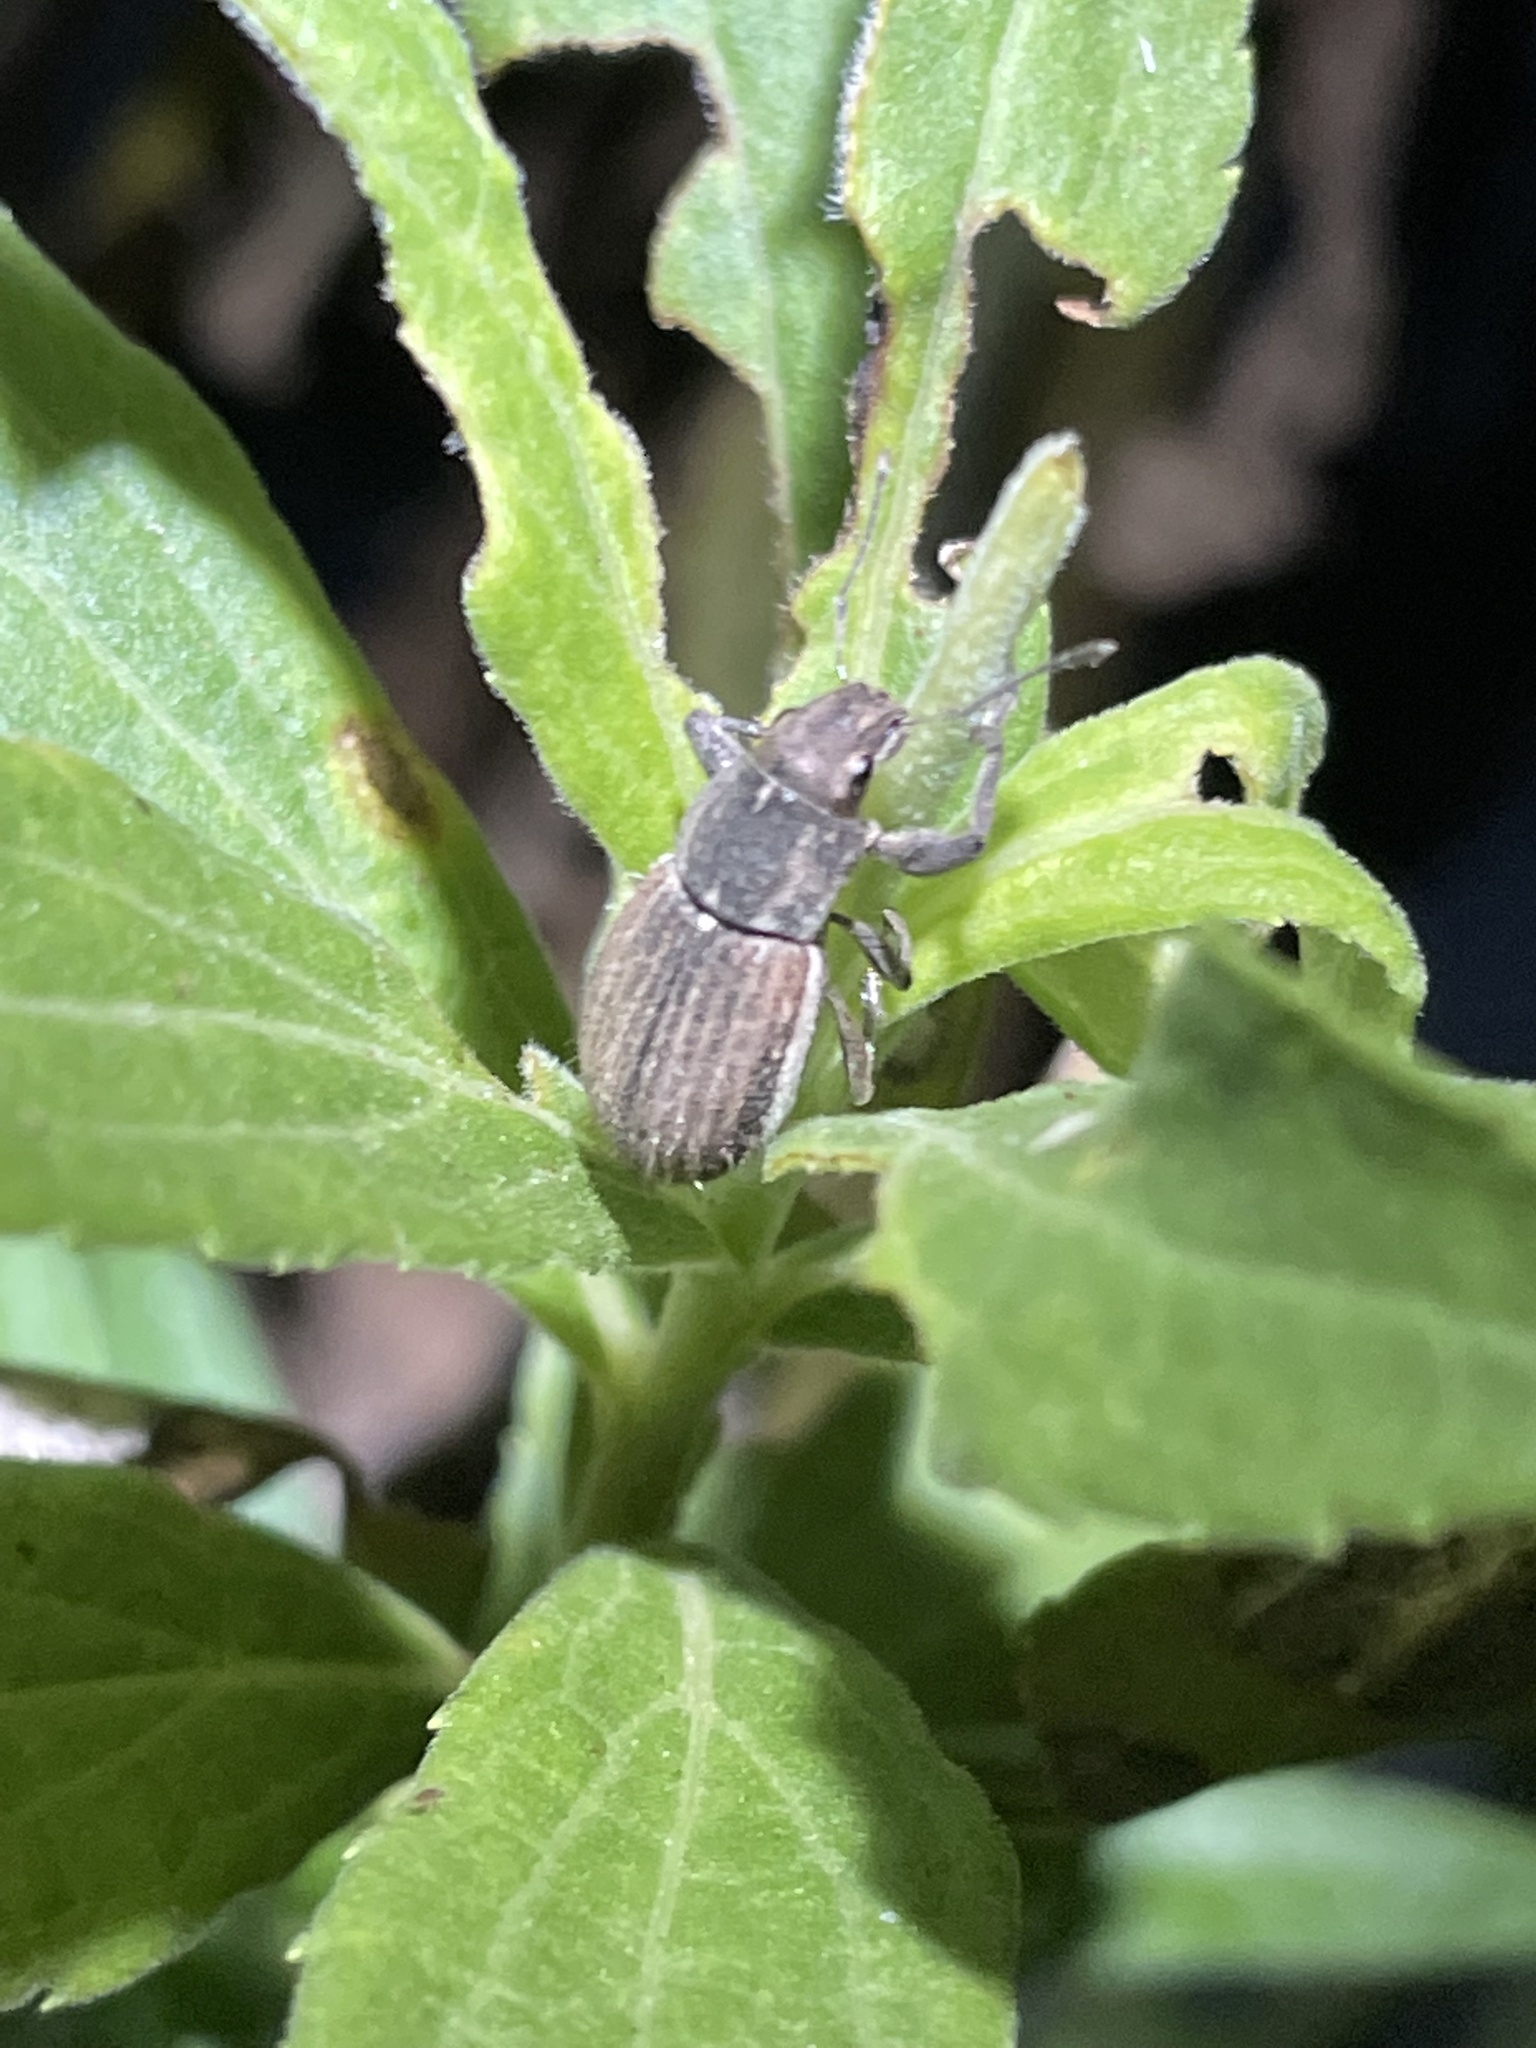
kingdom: Animalia
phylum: Arthropoda
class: Insecta
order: Coleoptera
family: Curculionidae
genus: Naupactus
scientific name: Naupactus leucoloma
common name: Whitefringed beetle
